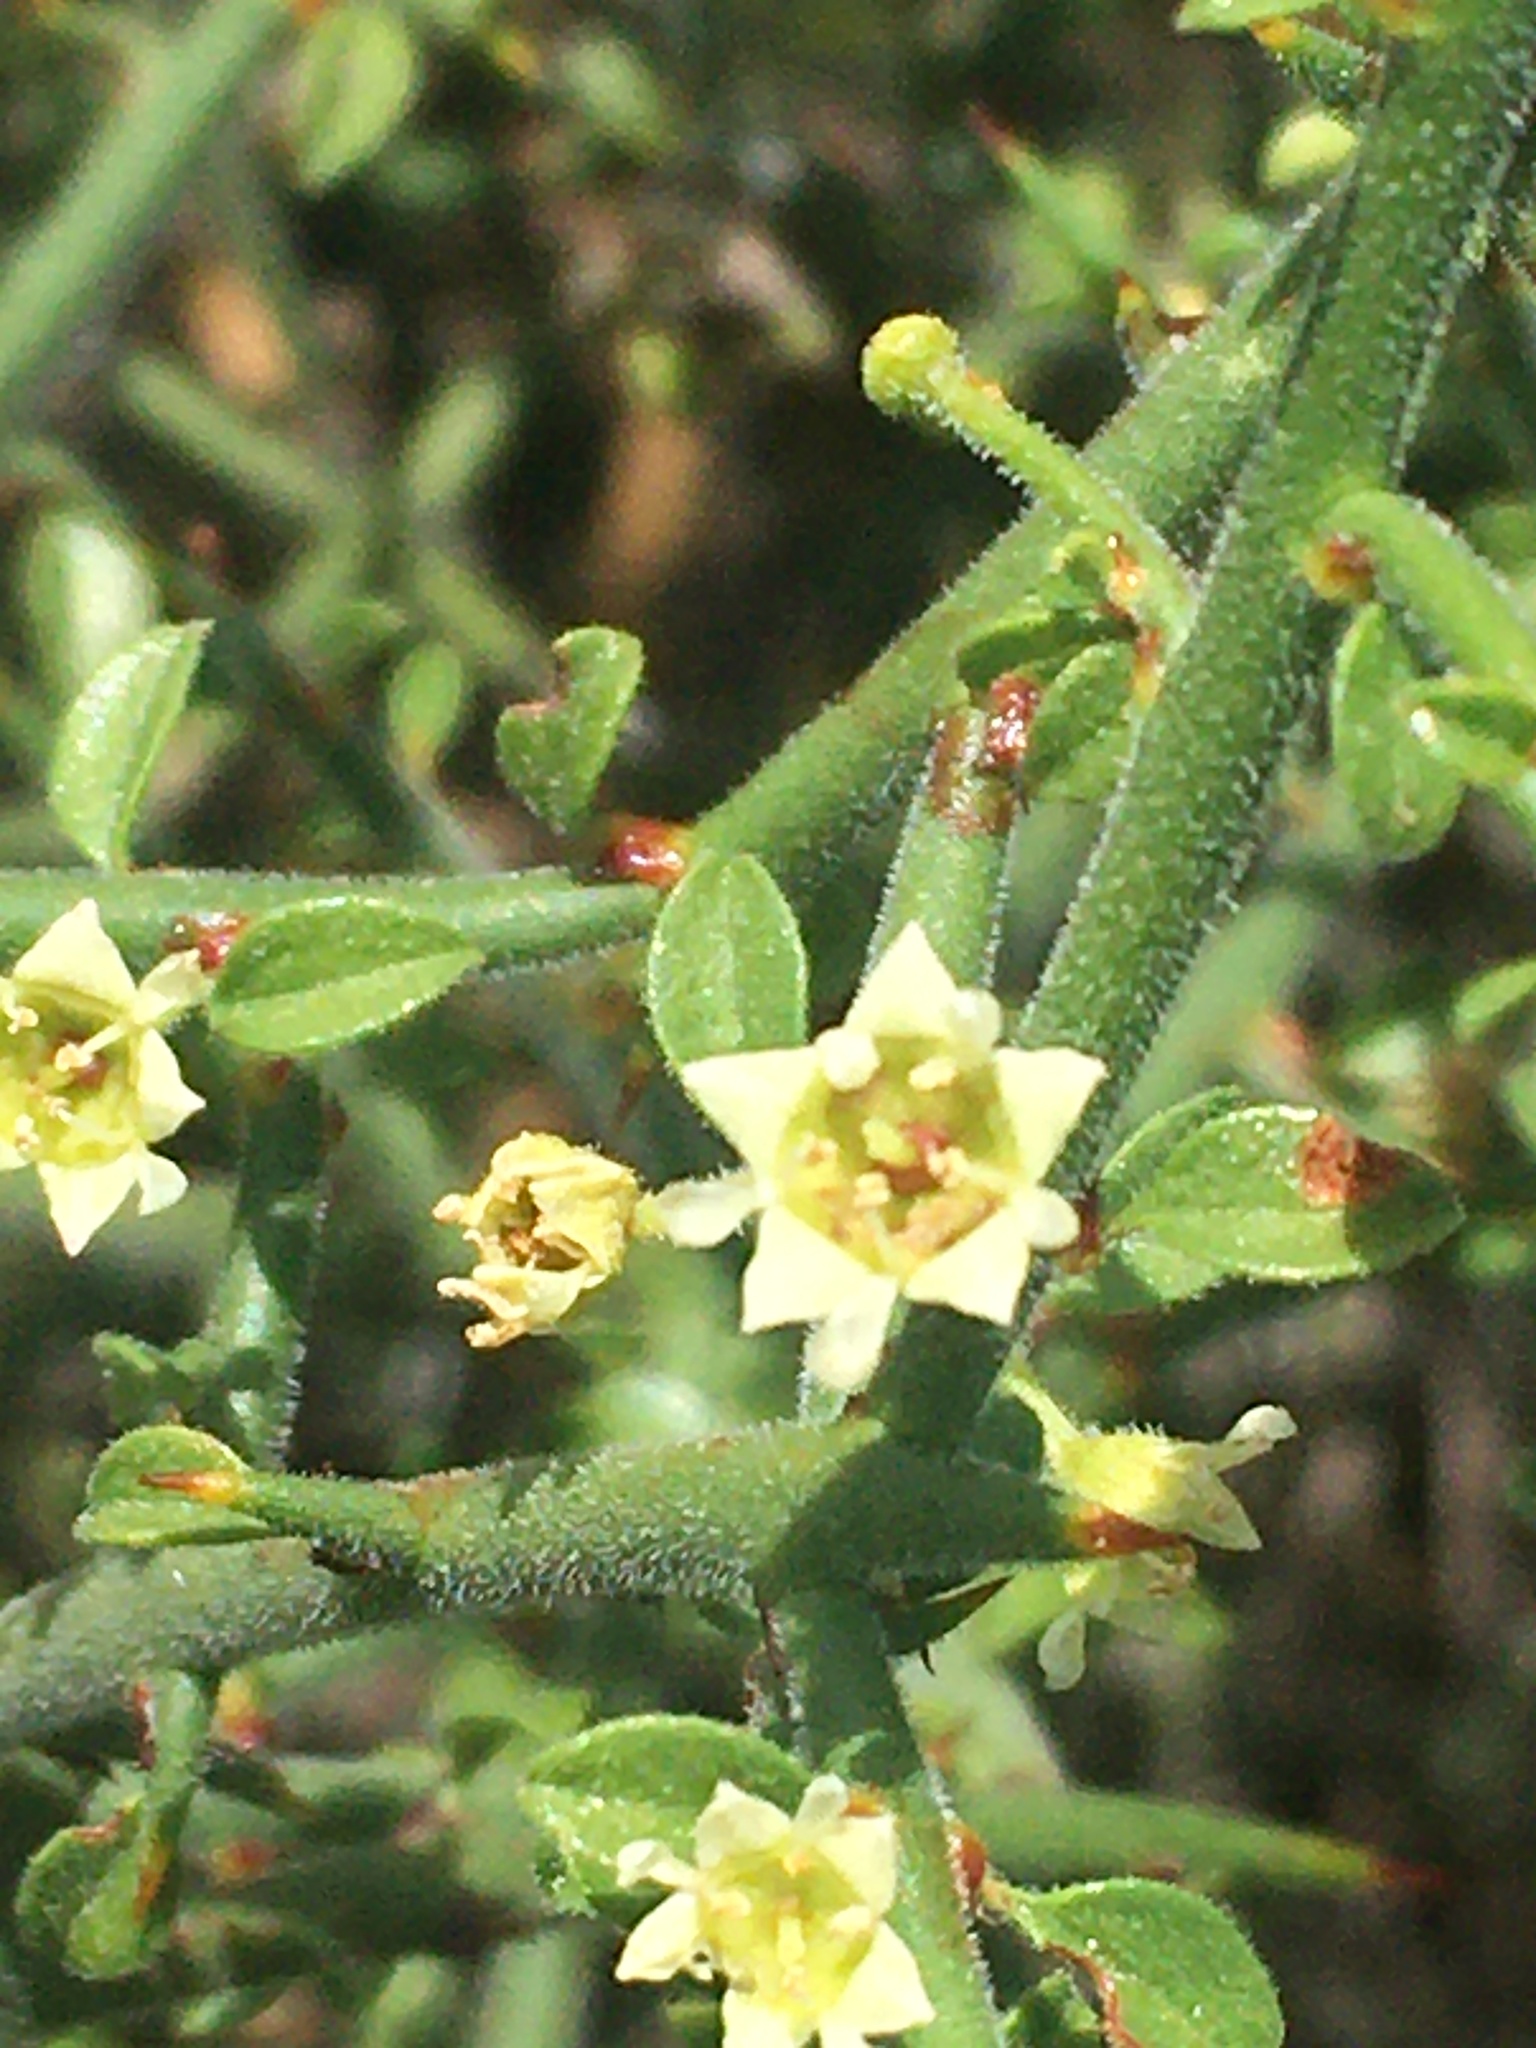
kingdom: Plantae
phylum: Tracheophyta
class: Magnoliopsida
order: Rosales
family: Rhamnaceae
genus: Adolphia
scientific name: Adolphia californica
